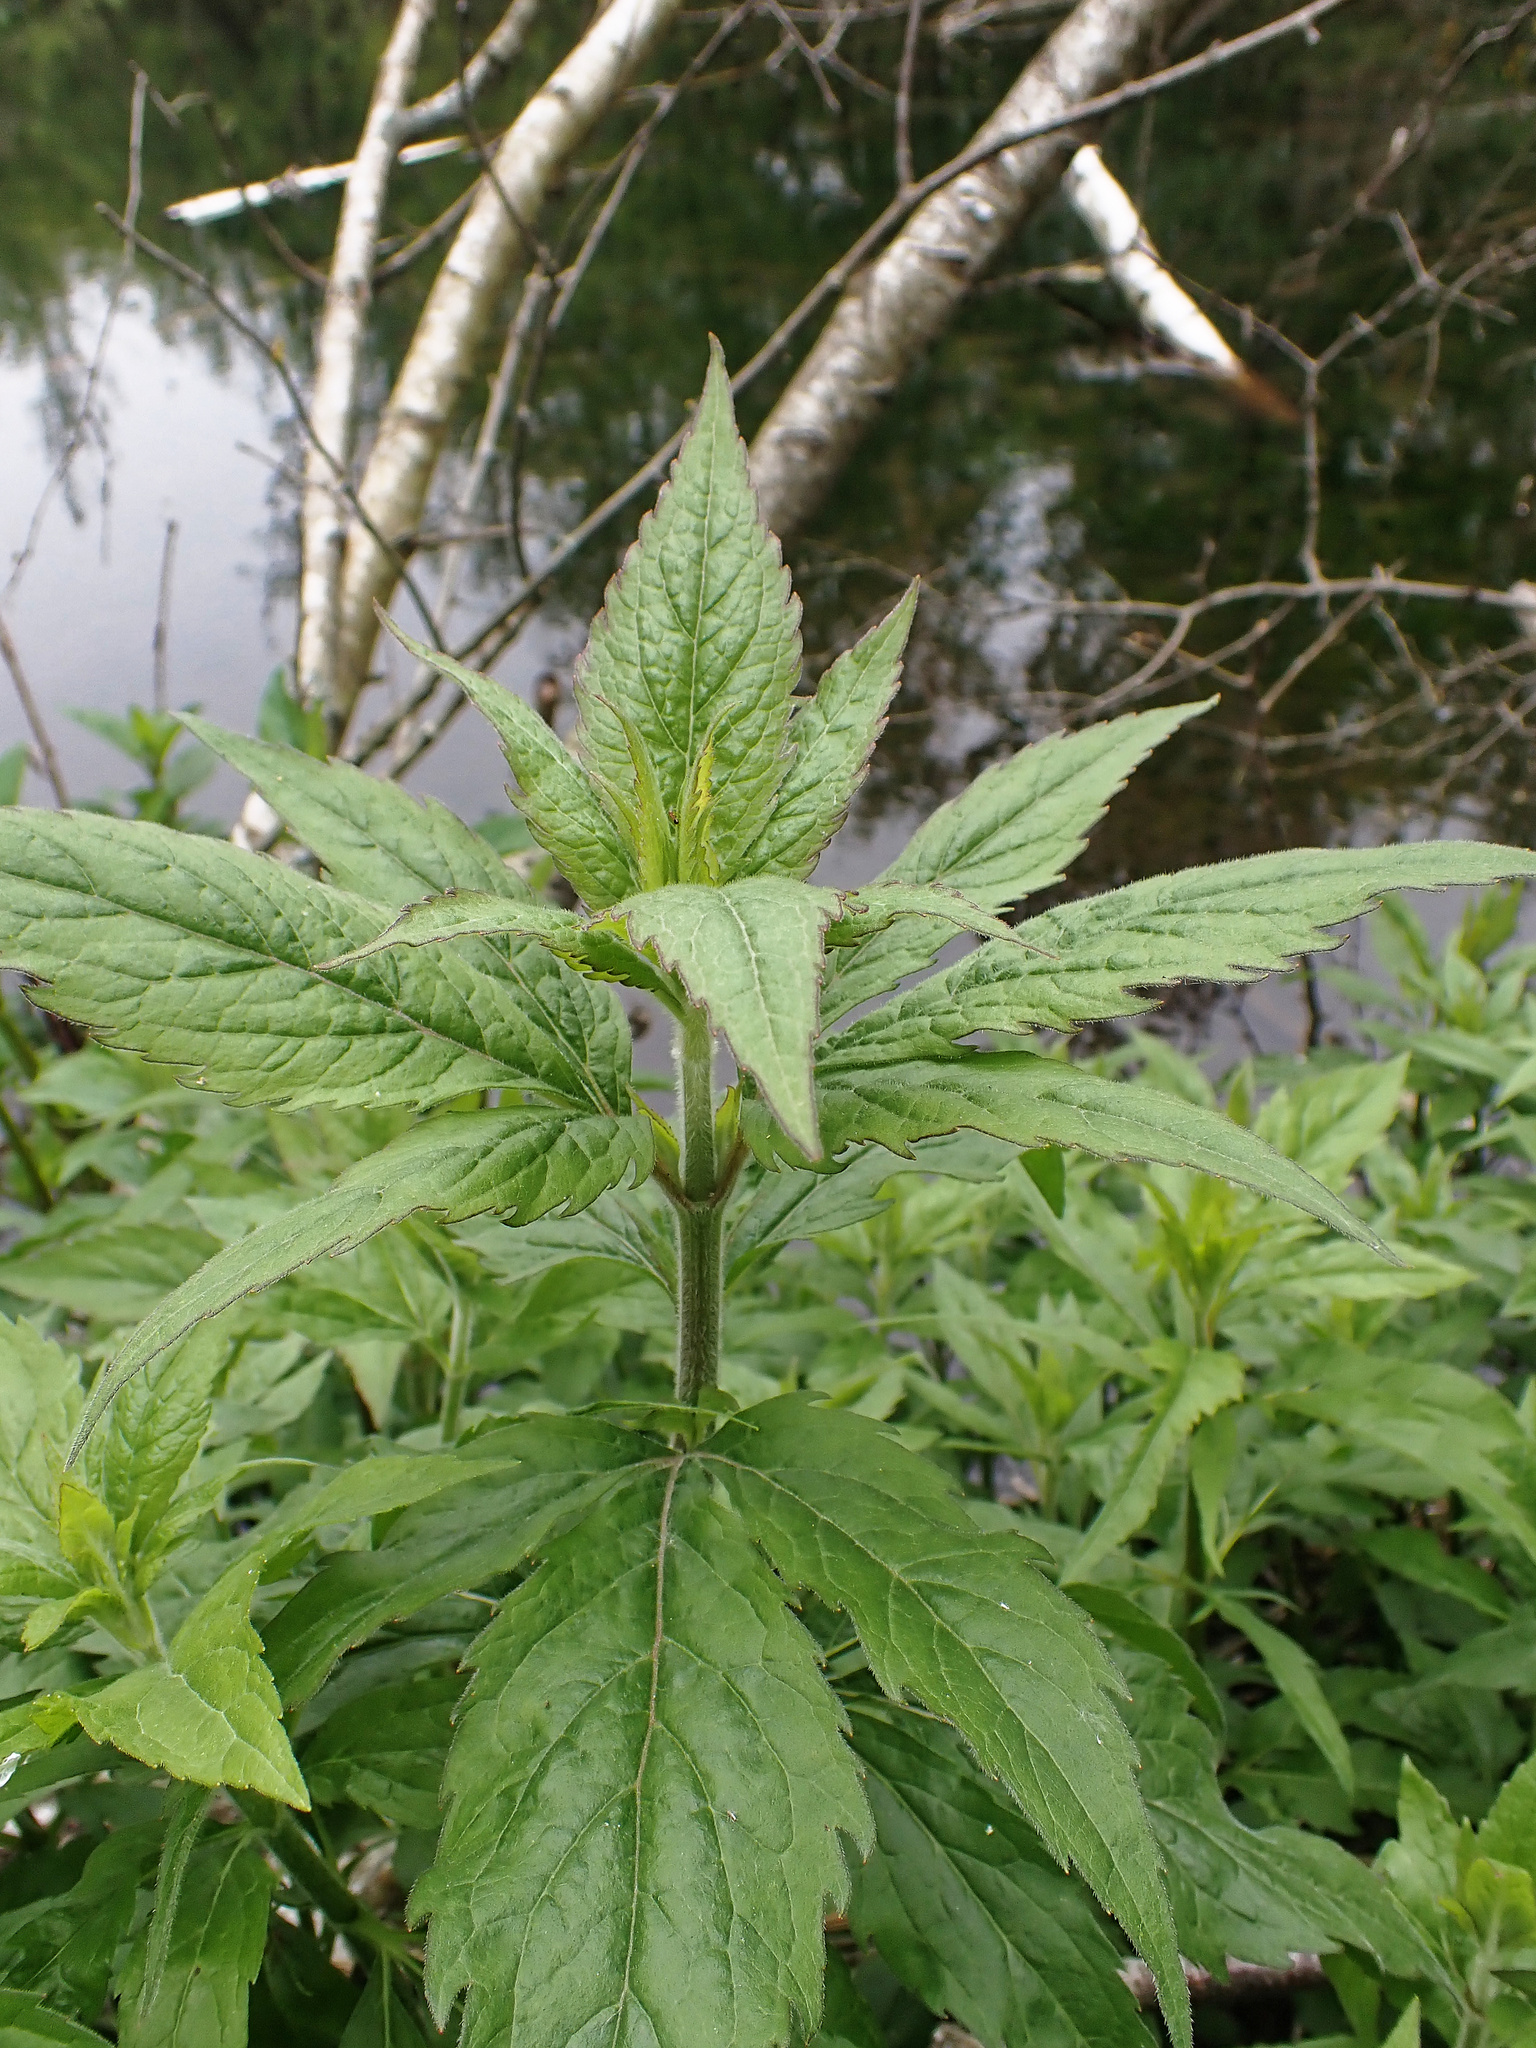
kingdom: Plantae
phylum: Tracheophyta
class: Magnoliopsida
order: Asterales
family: Asteraceae
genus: Eupatorium
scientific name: Eupatorium cannabinum
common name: Hemp-agrimony
